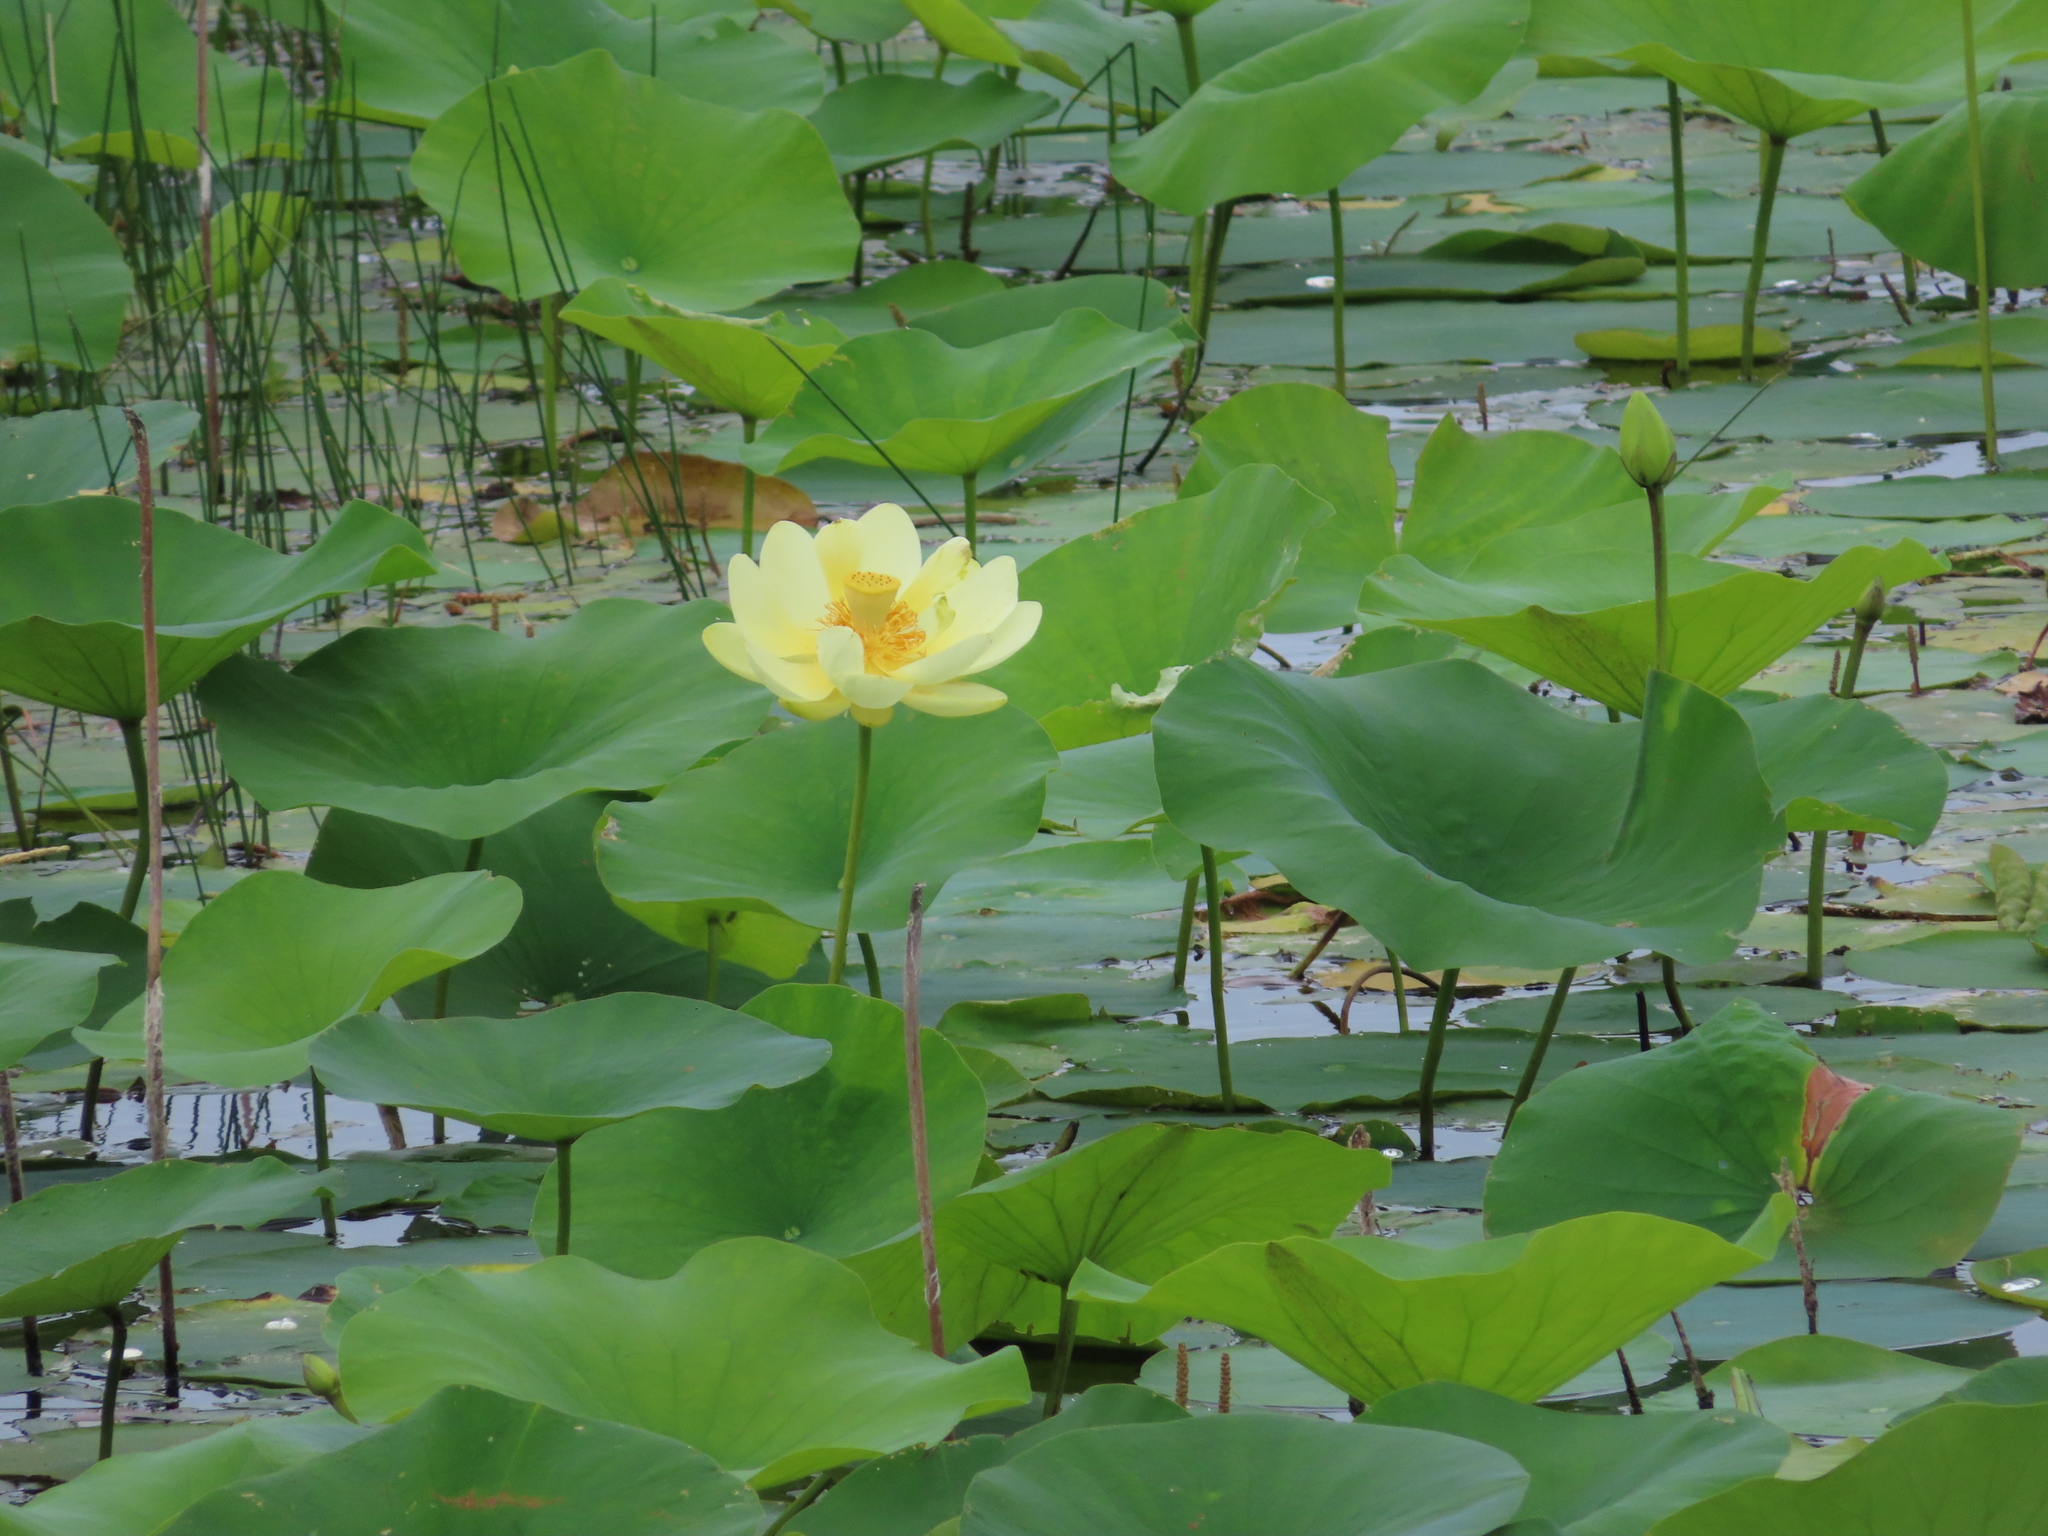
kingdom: Plantae
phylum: Tracheophyta
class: Magnoliopsida
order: Proteales
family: Nelumbonaceae
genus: Nelumbo
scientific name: Nelumbo lutea
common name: American lotus
